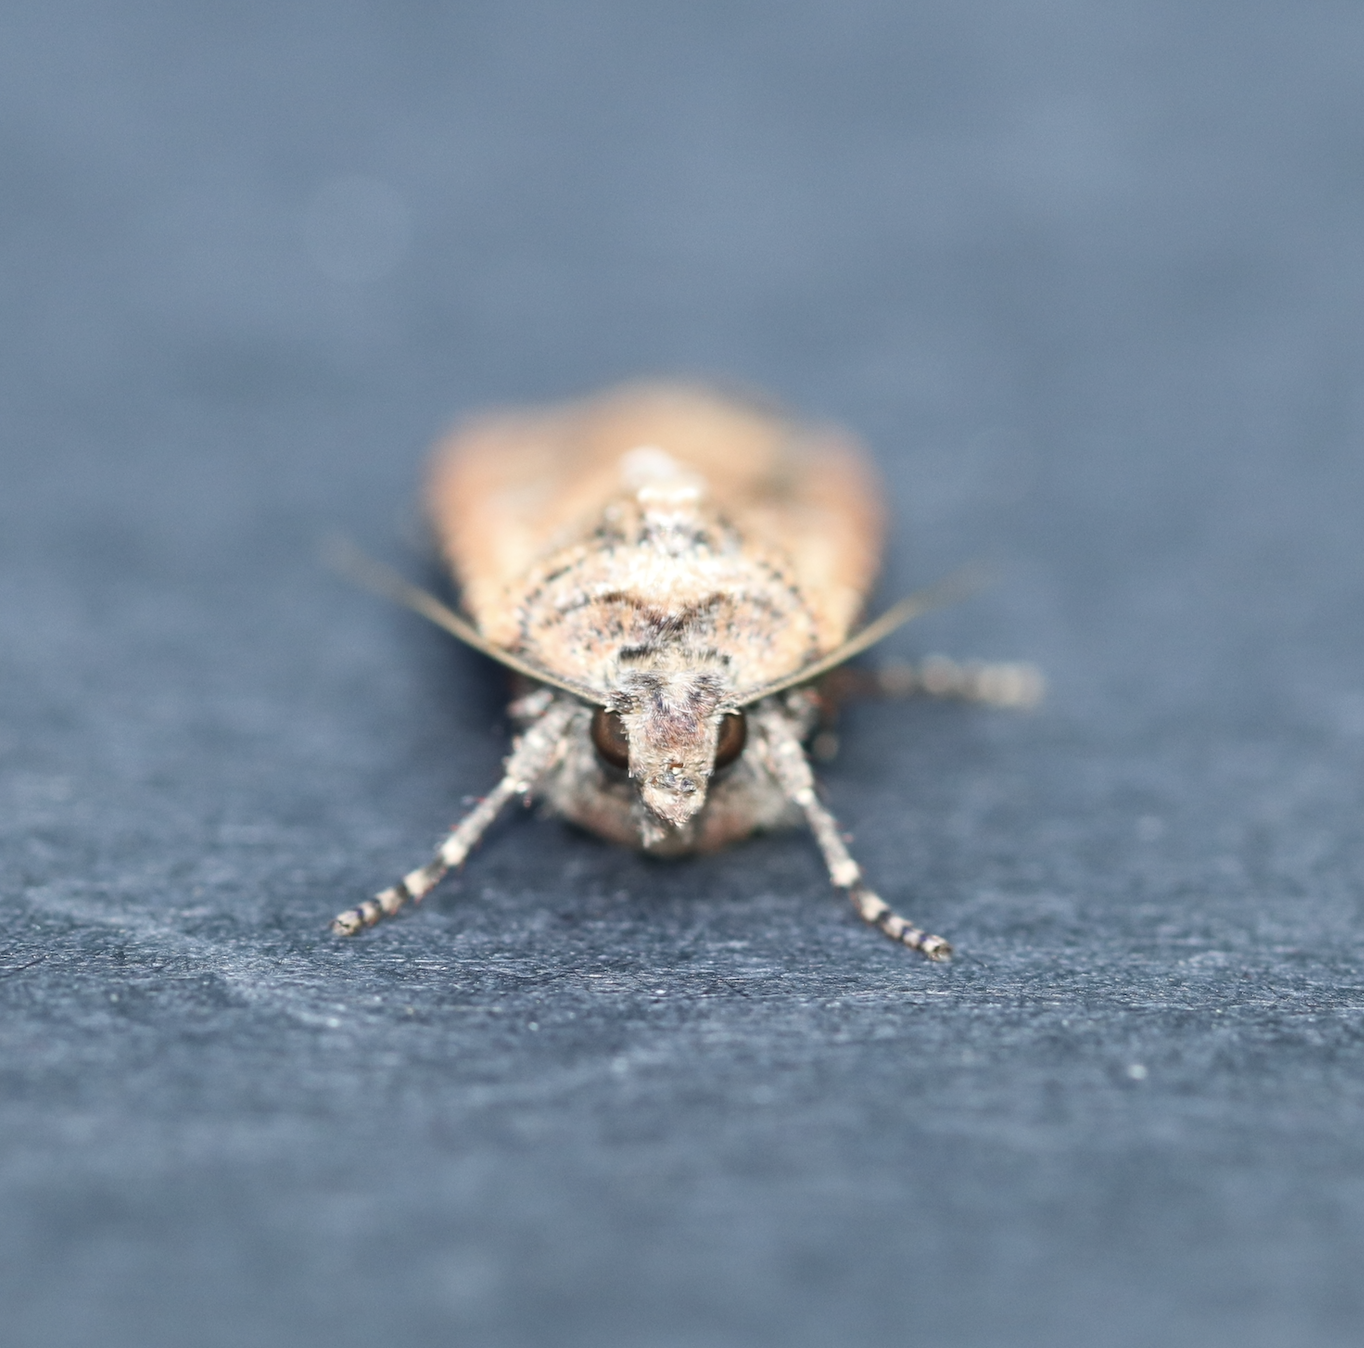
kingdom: Animalia
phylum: Arthropoda
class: Insecta
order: Lepidoptera
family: Noctuidae
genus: Euxoa
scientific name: Euxoa ochrogaster
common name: Red-backed cutworm moth
